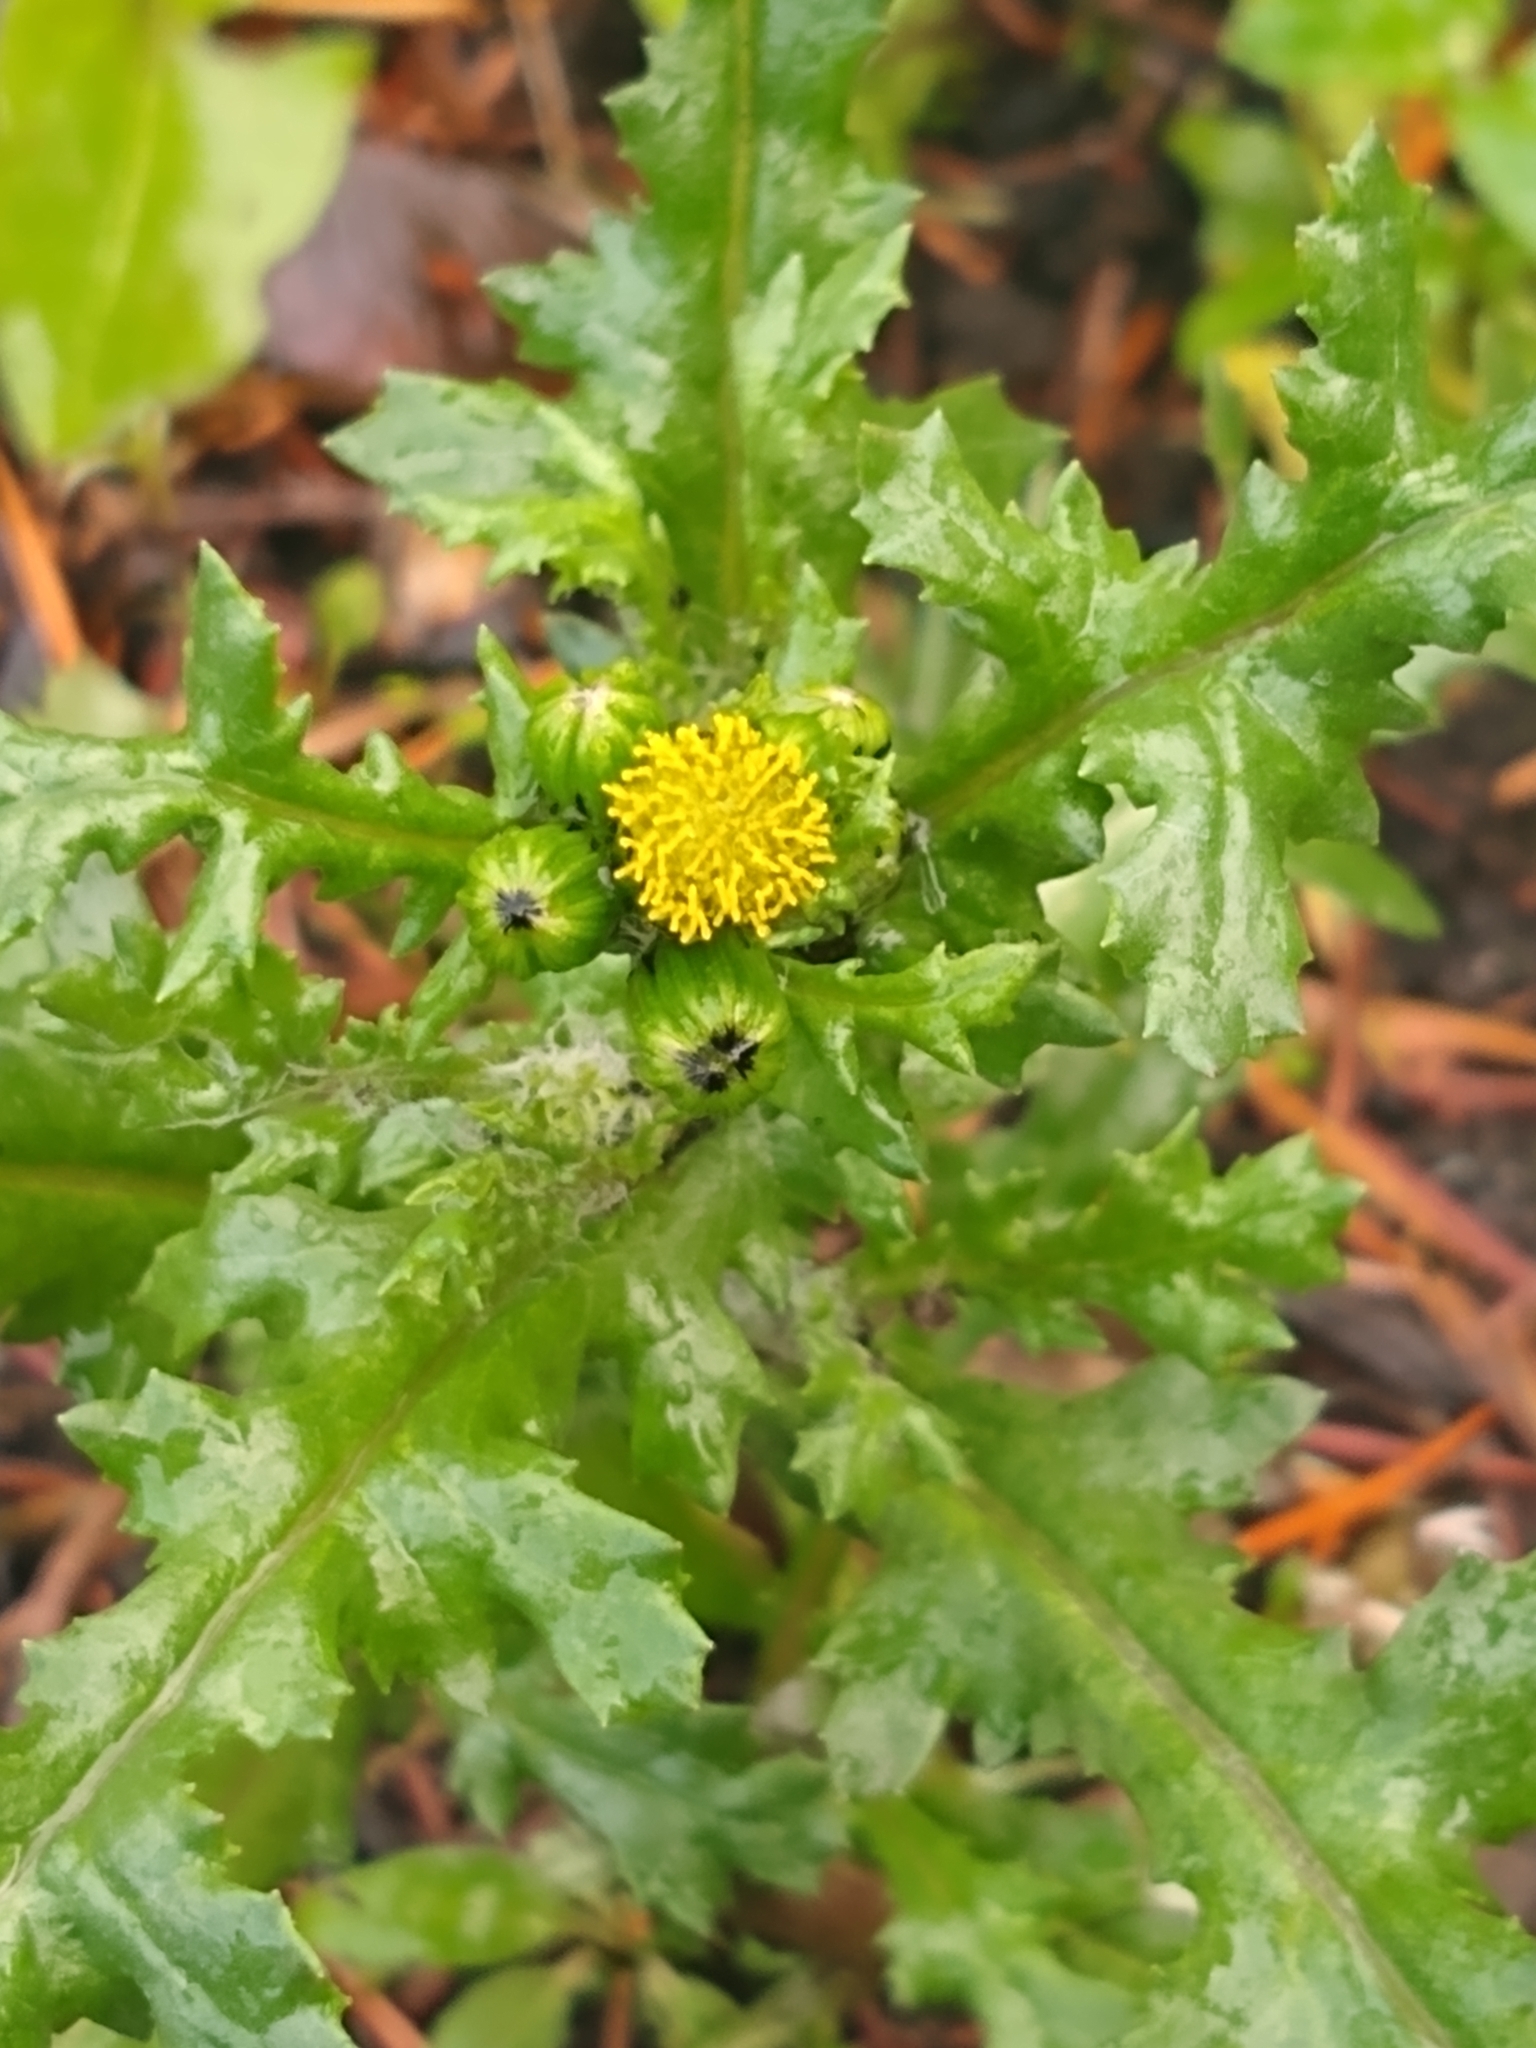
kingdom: Plantae
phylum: Tracheophyta
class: Magnoliopsida
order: Asterales
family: Asteraceae
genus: Senecio
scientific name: Senecio vulgaris
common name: Old-man-in-the-spring
